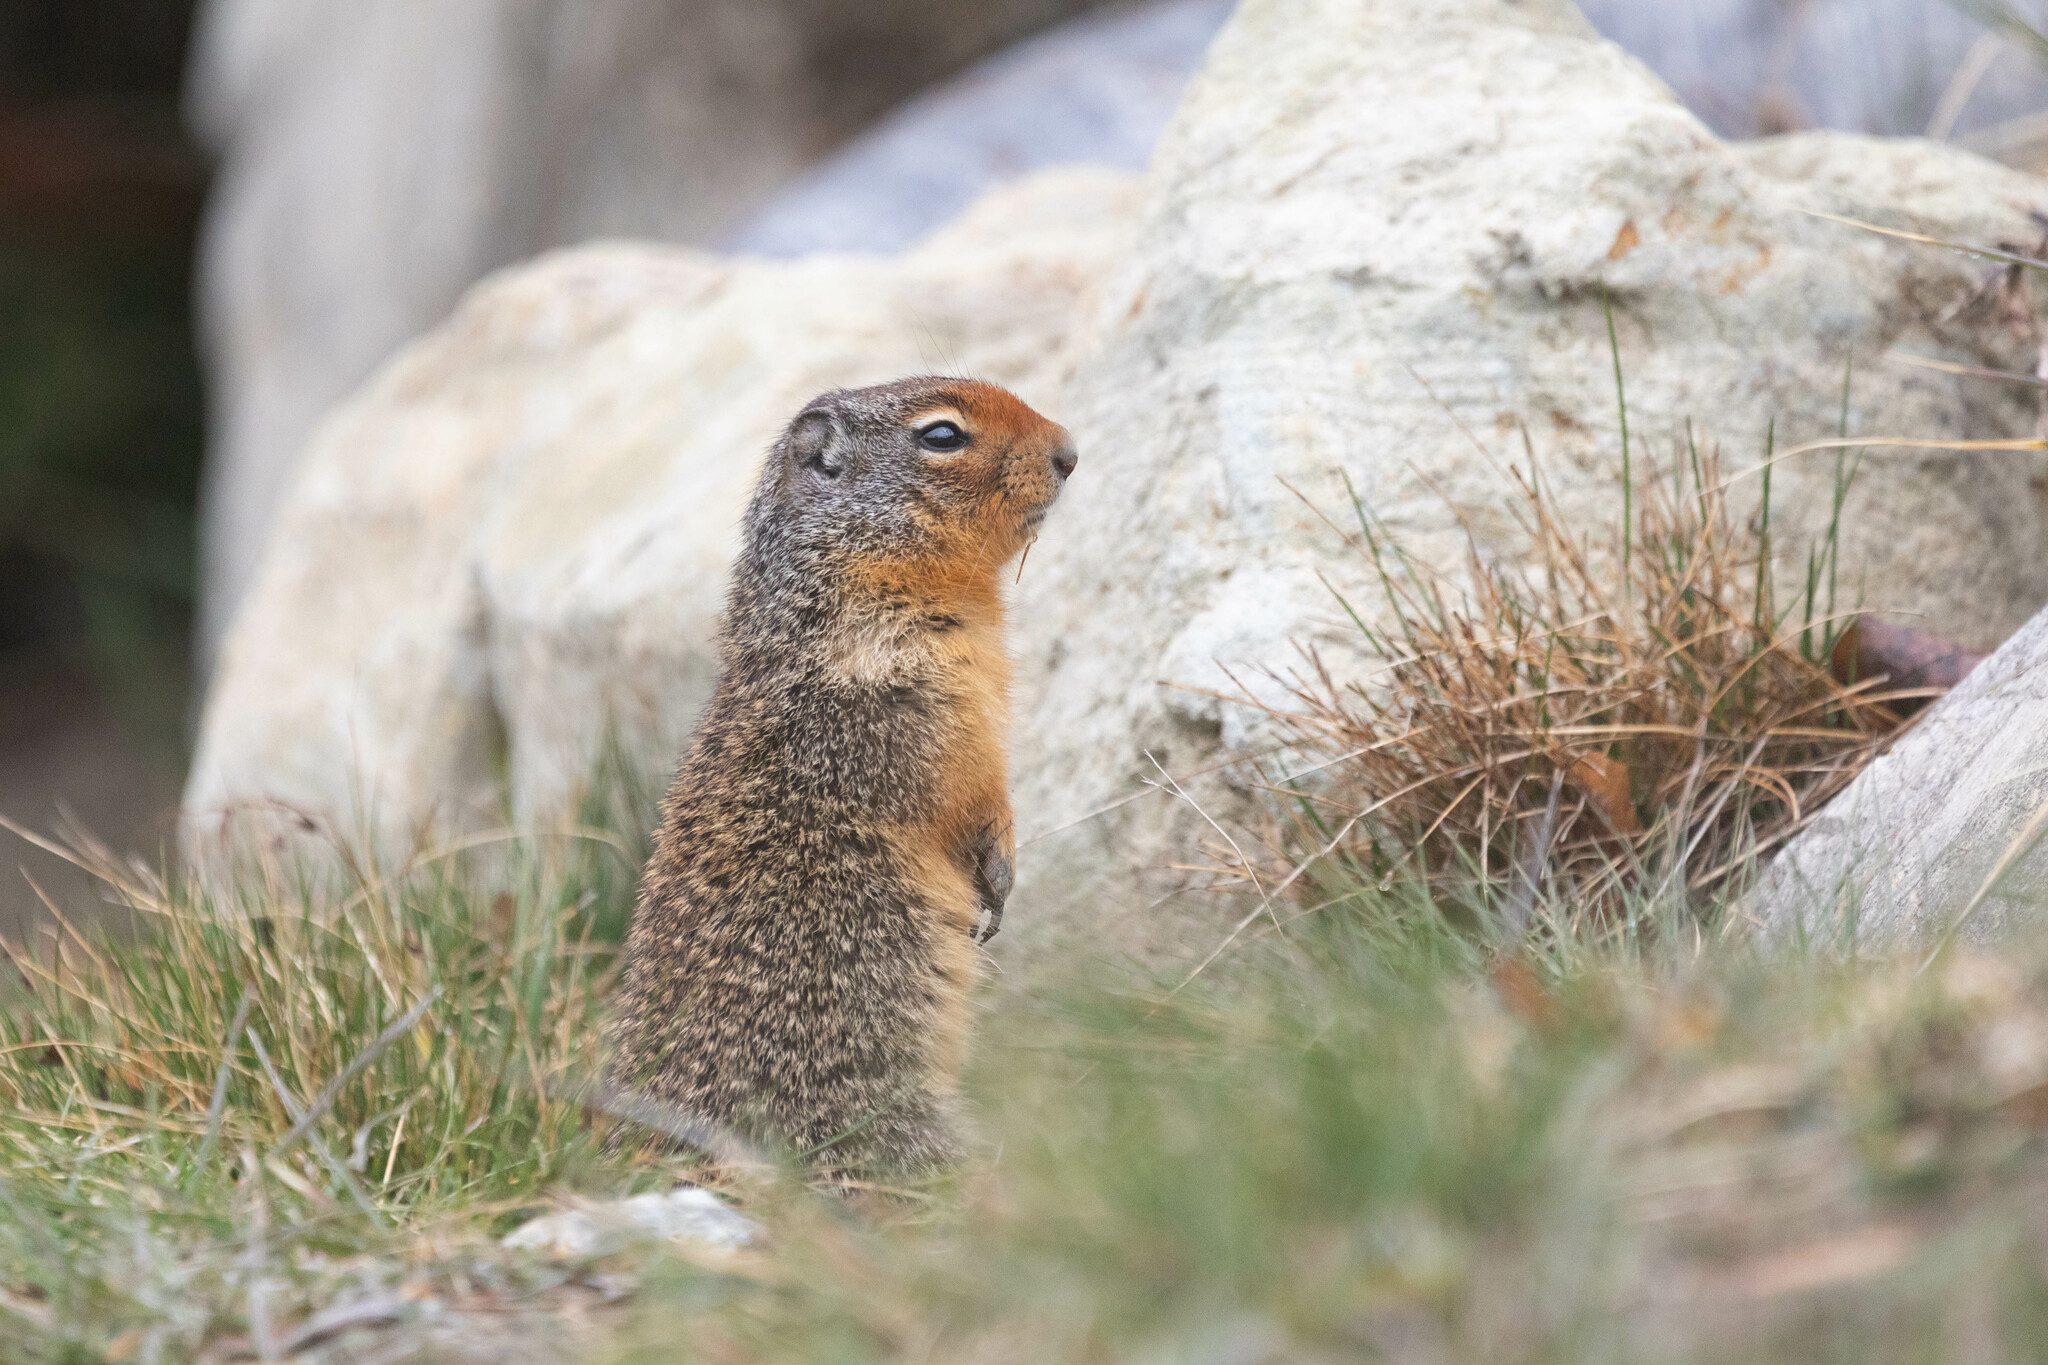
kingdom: Animalia
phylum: Chordata
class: Mammalia
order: Rodentia
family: Sciuridae
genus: Urocitellus
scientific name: Urocitellus columbianus
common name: Columbian ground squirrel
